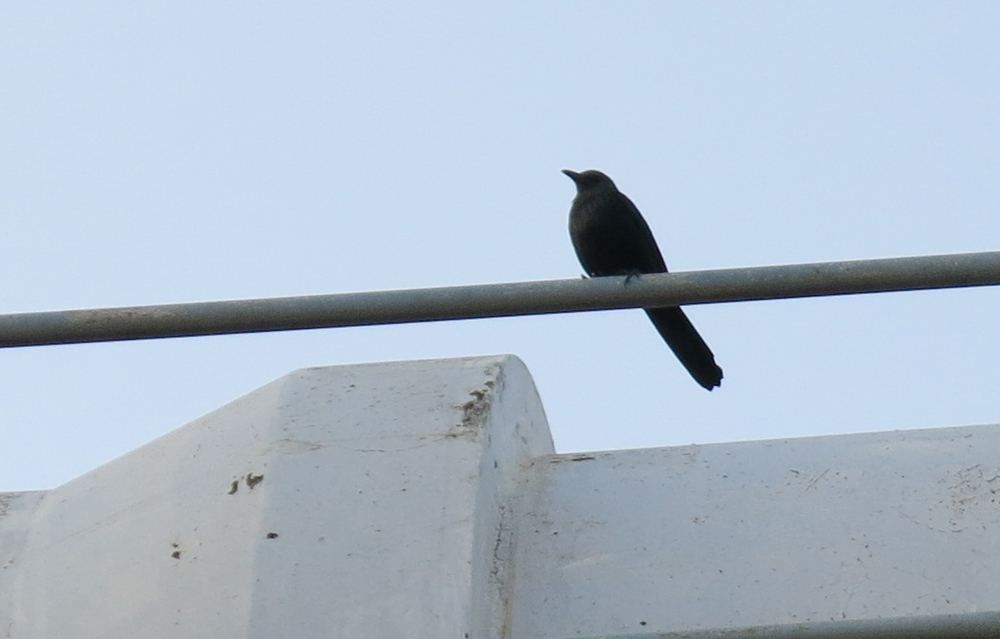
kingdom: Animalia
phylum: Chordata
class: Aves
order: Passeriformes
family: Sturnidae
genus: Onychognathus
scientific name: Onychognathus morio
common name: Red-winged starling
